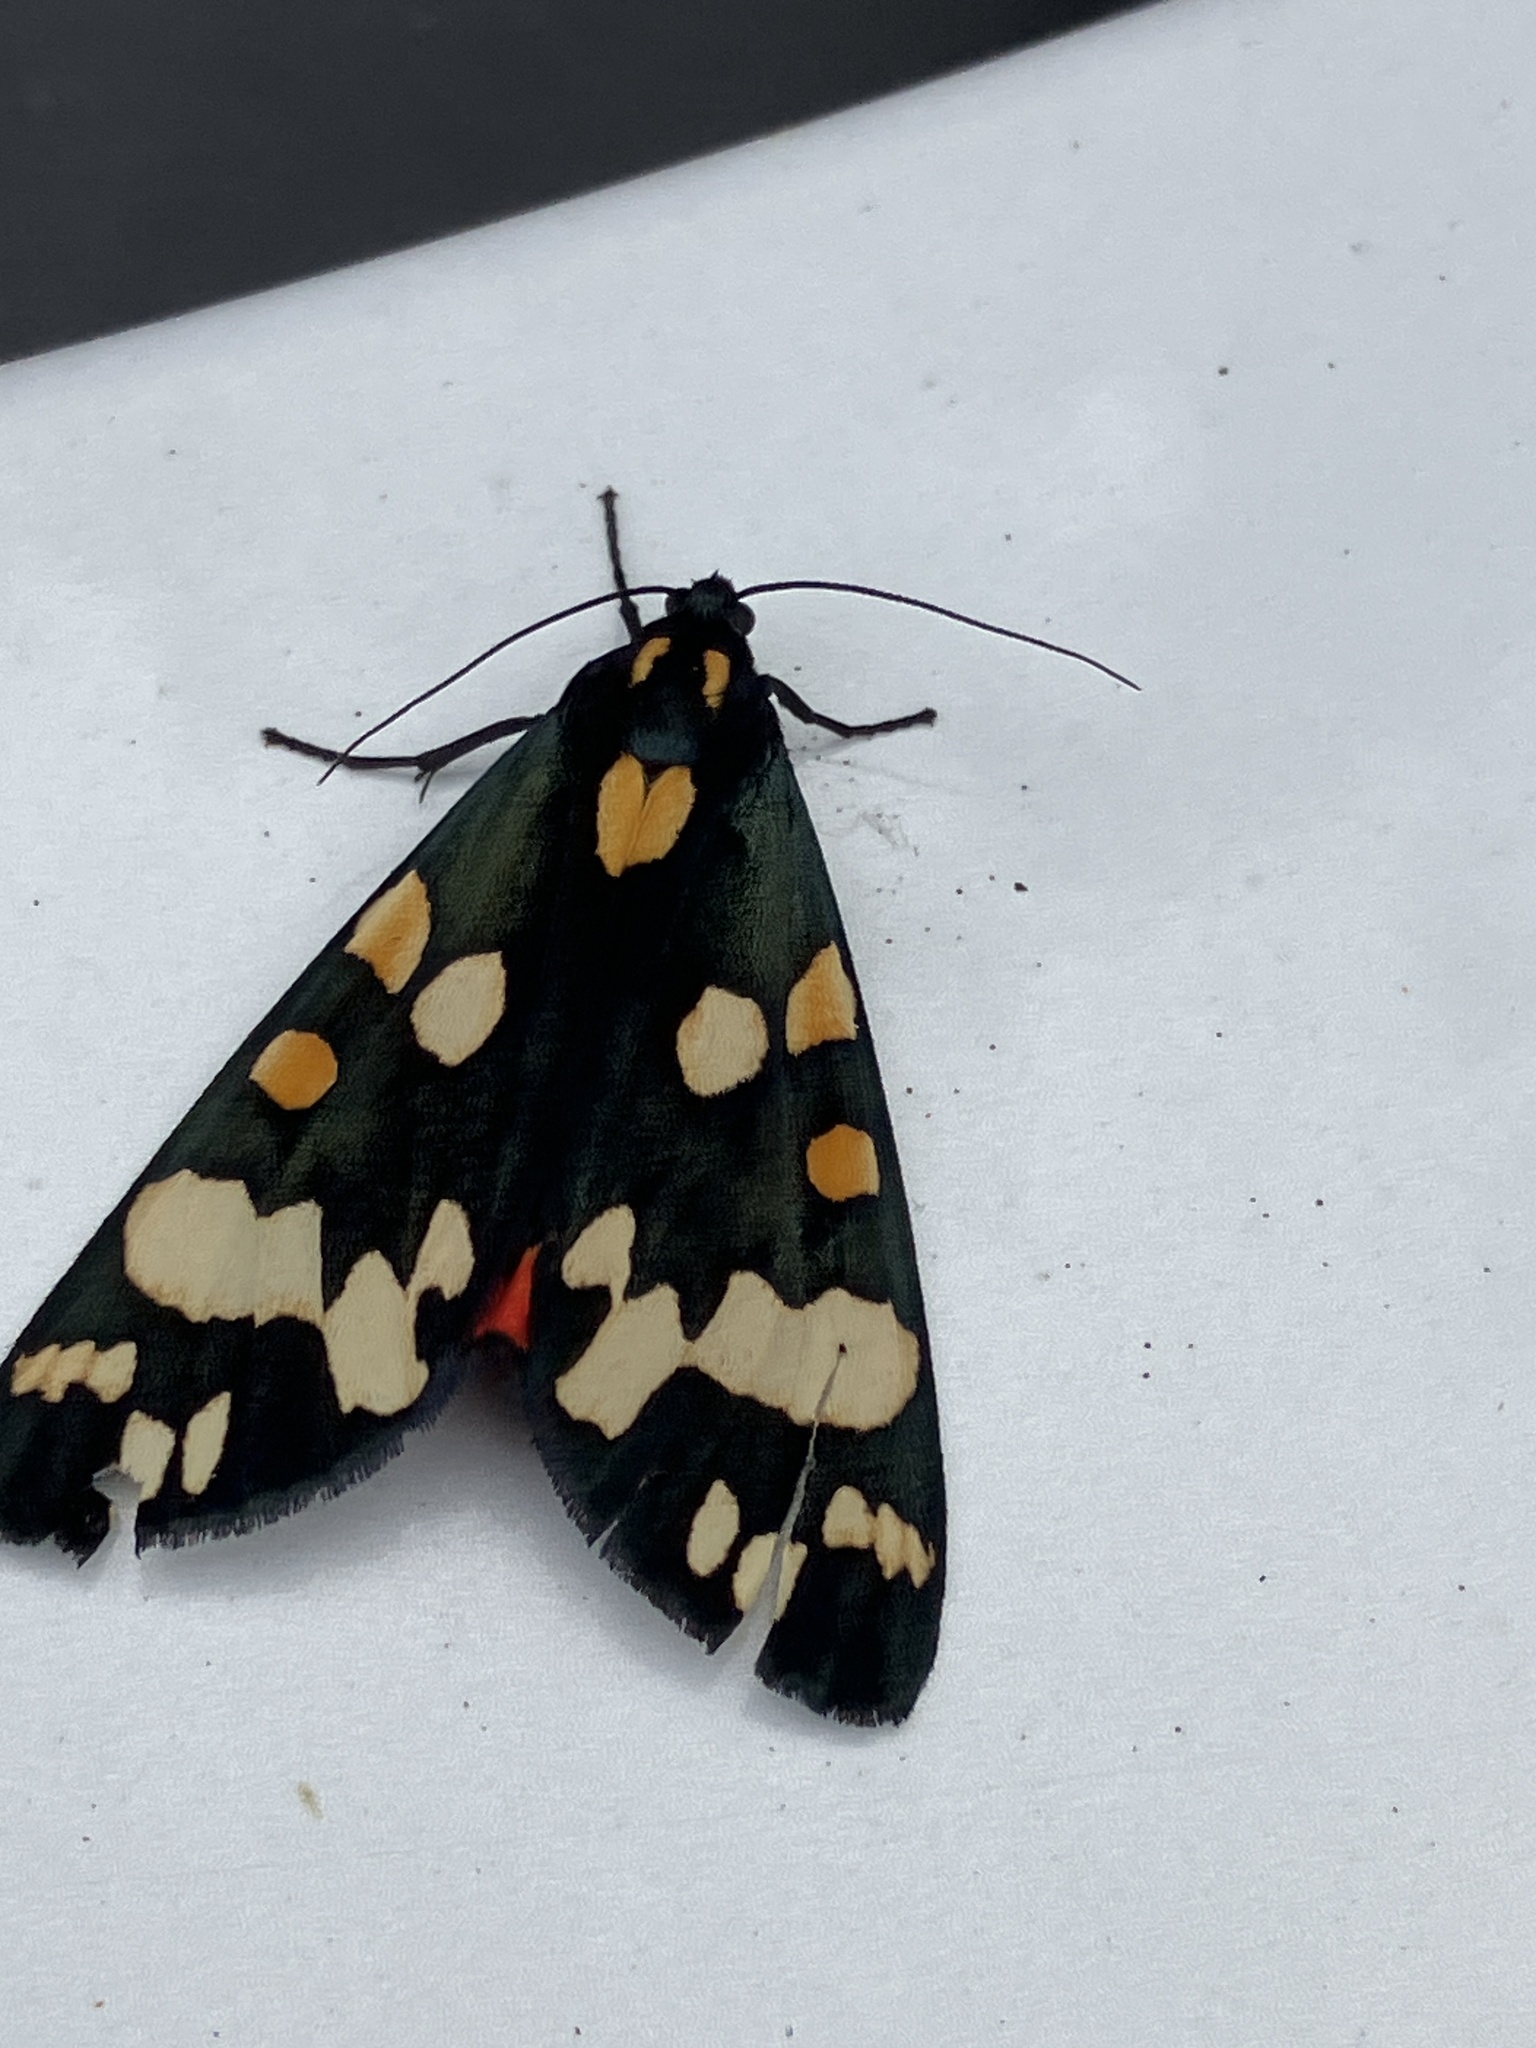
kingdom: Animalia
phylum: Arthropoda
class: Insecta
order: Lepidoptera
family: Erebidae
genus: Callimorpha
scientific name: Callimorpha dominula
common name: Scarlet tiger
